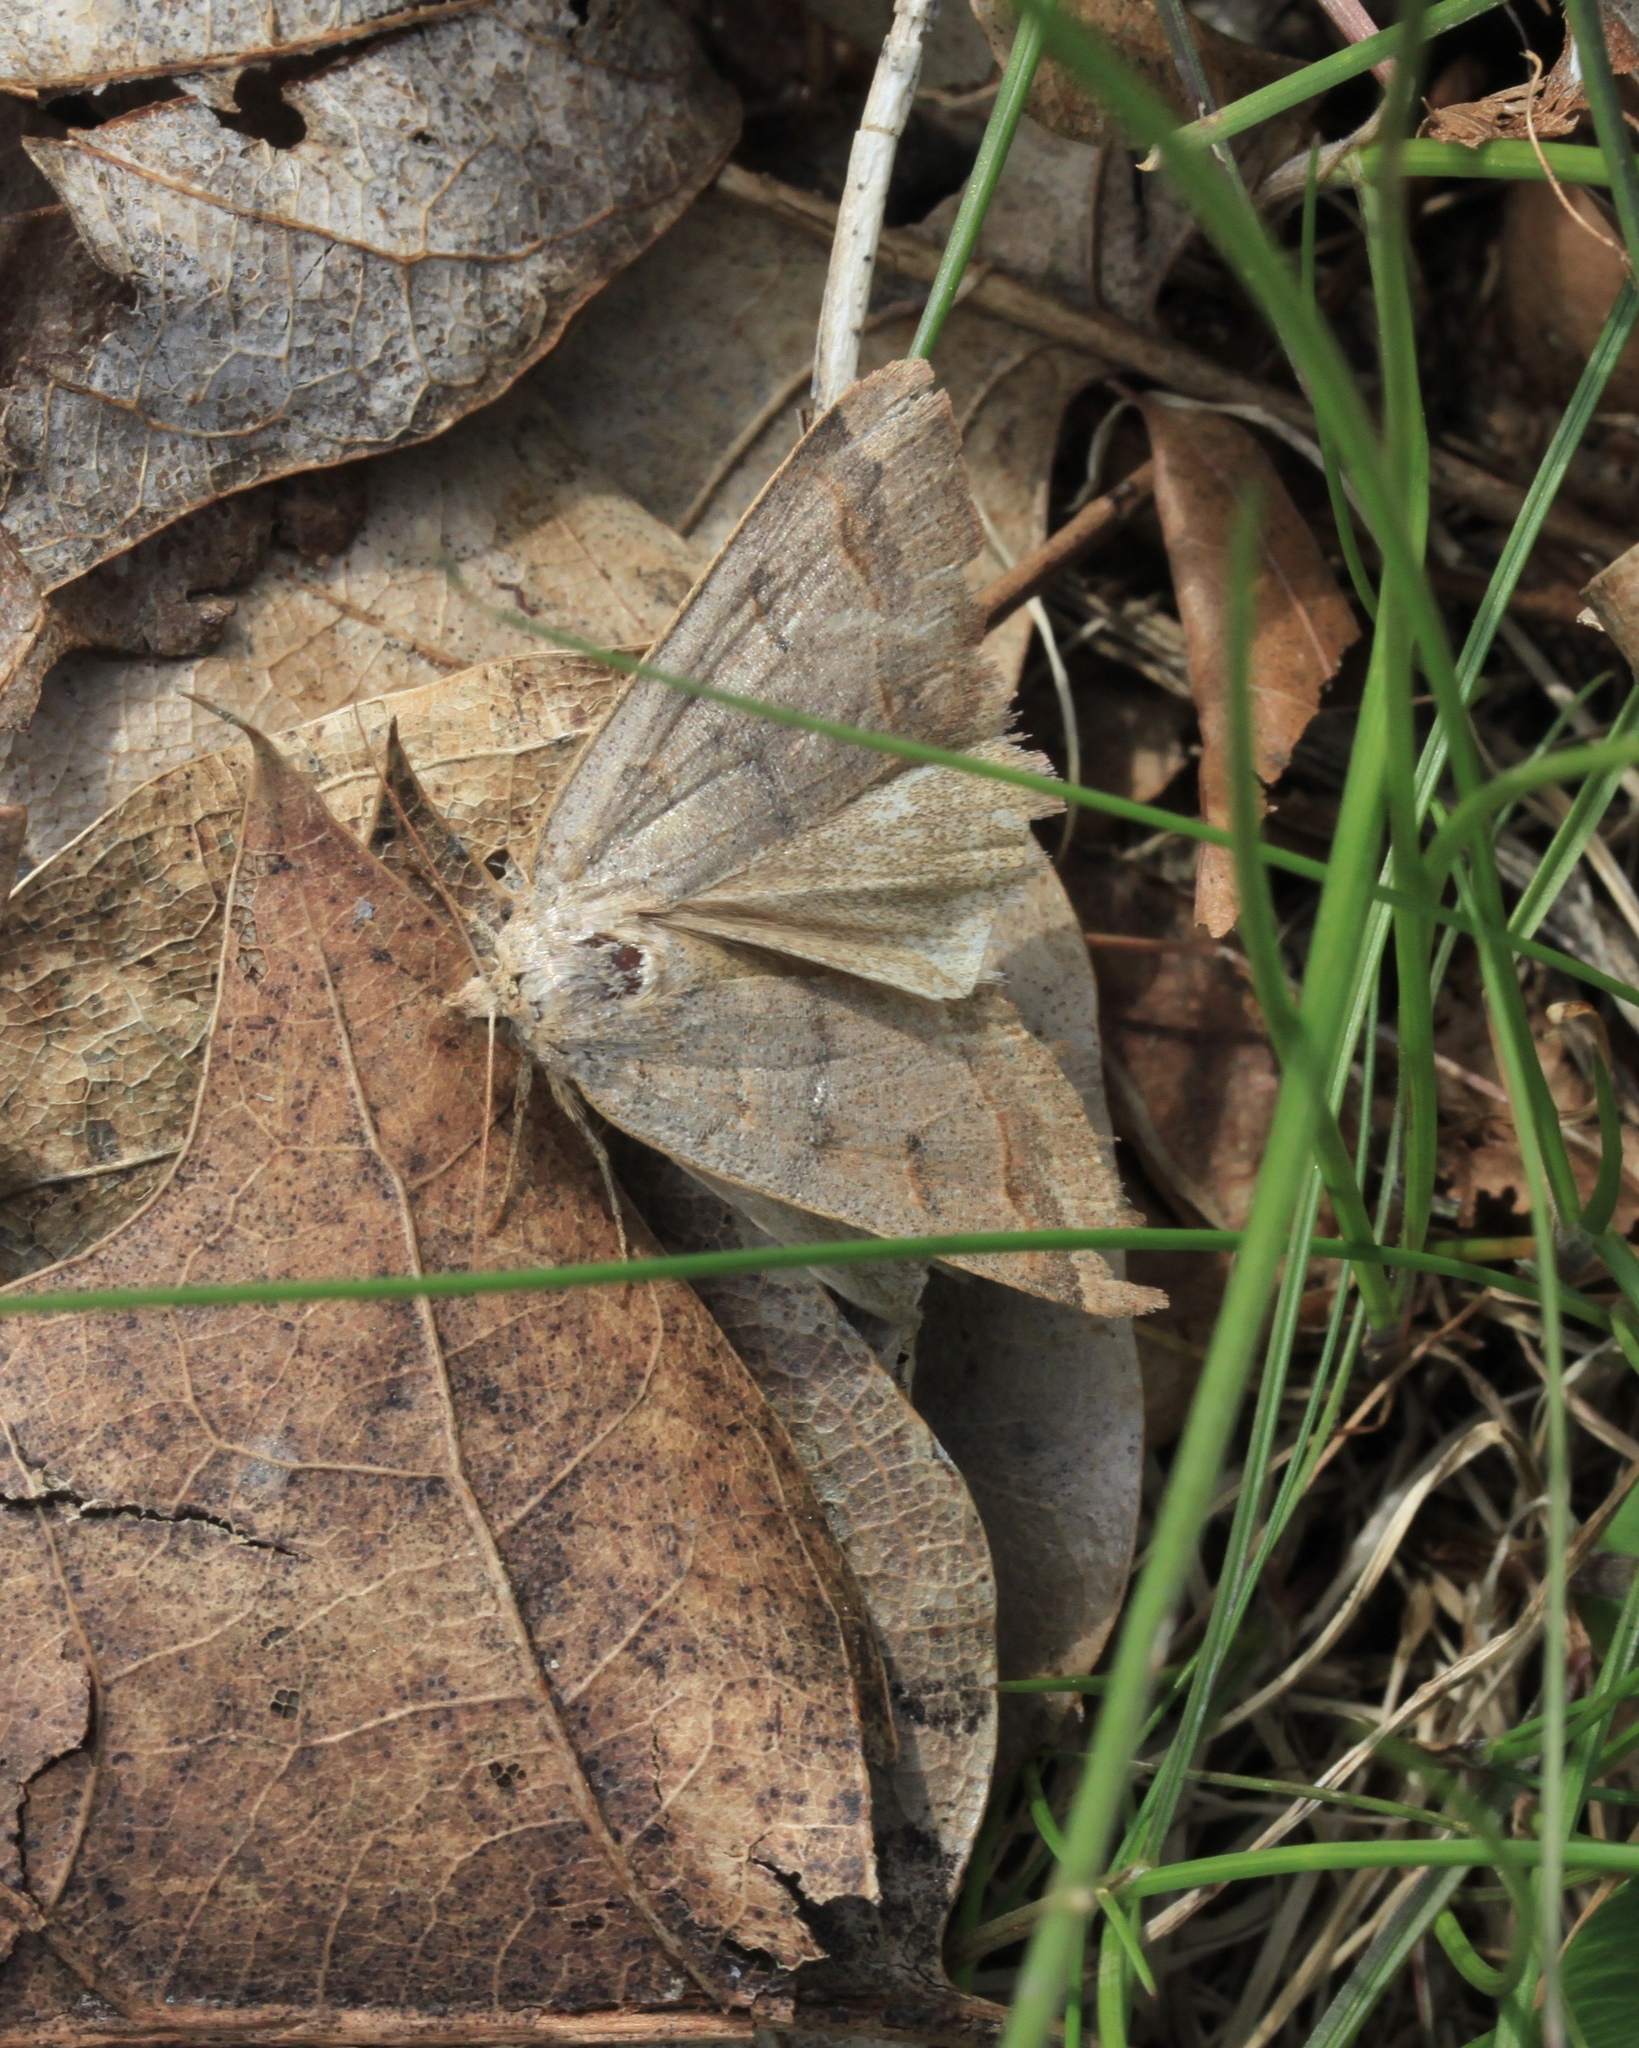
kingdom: Animalia
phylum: Arthropoda
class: Insecta
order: Lepidoptera
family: Erebidae
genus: Phoberia
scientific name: Phoberia atomaris
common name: Common oak moth
